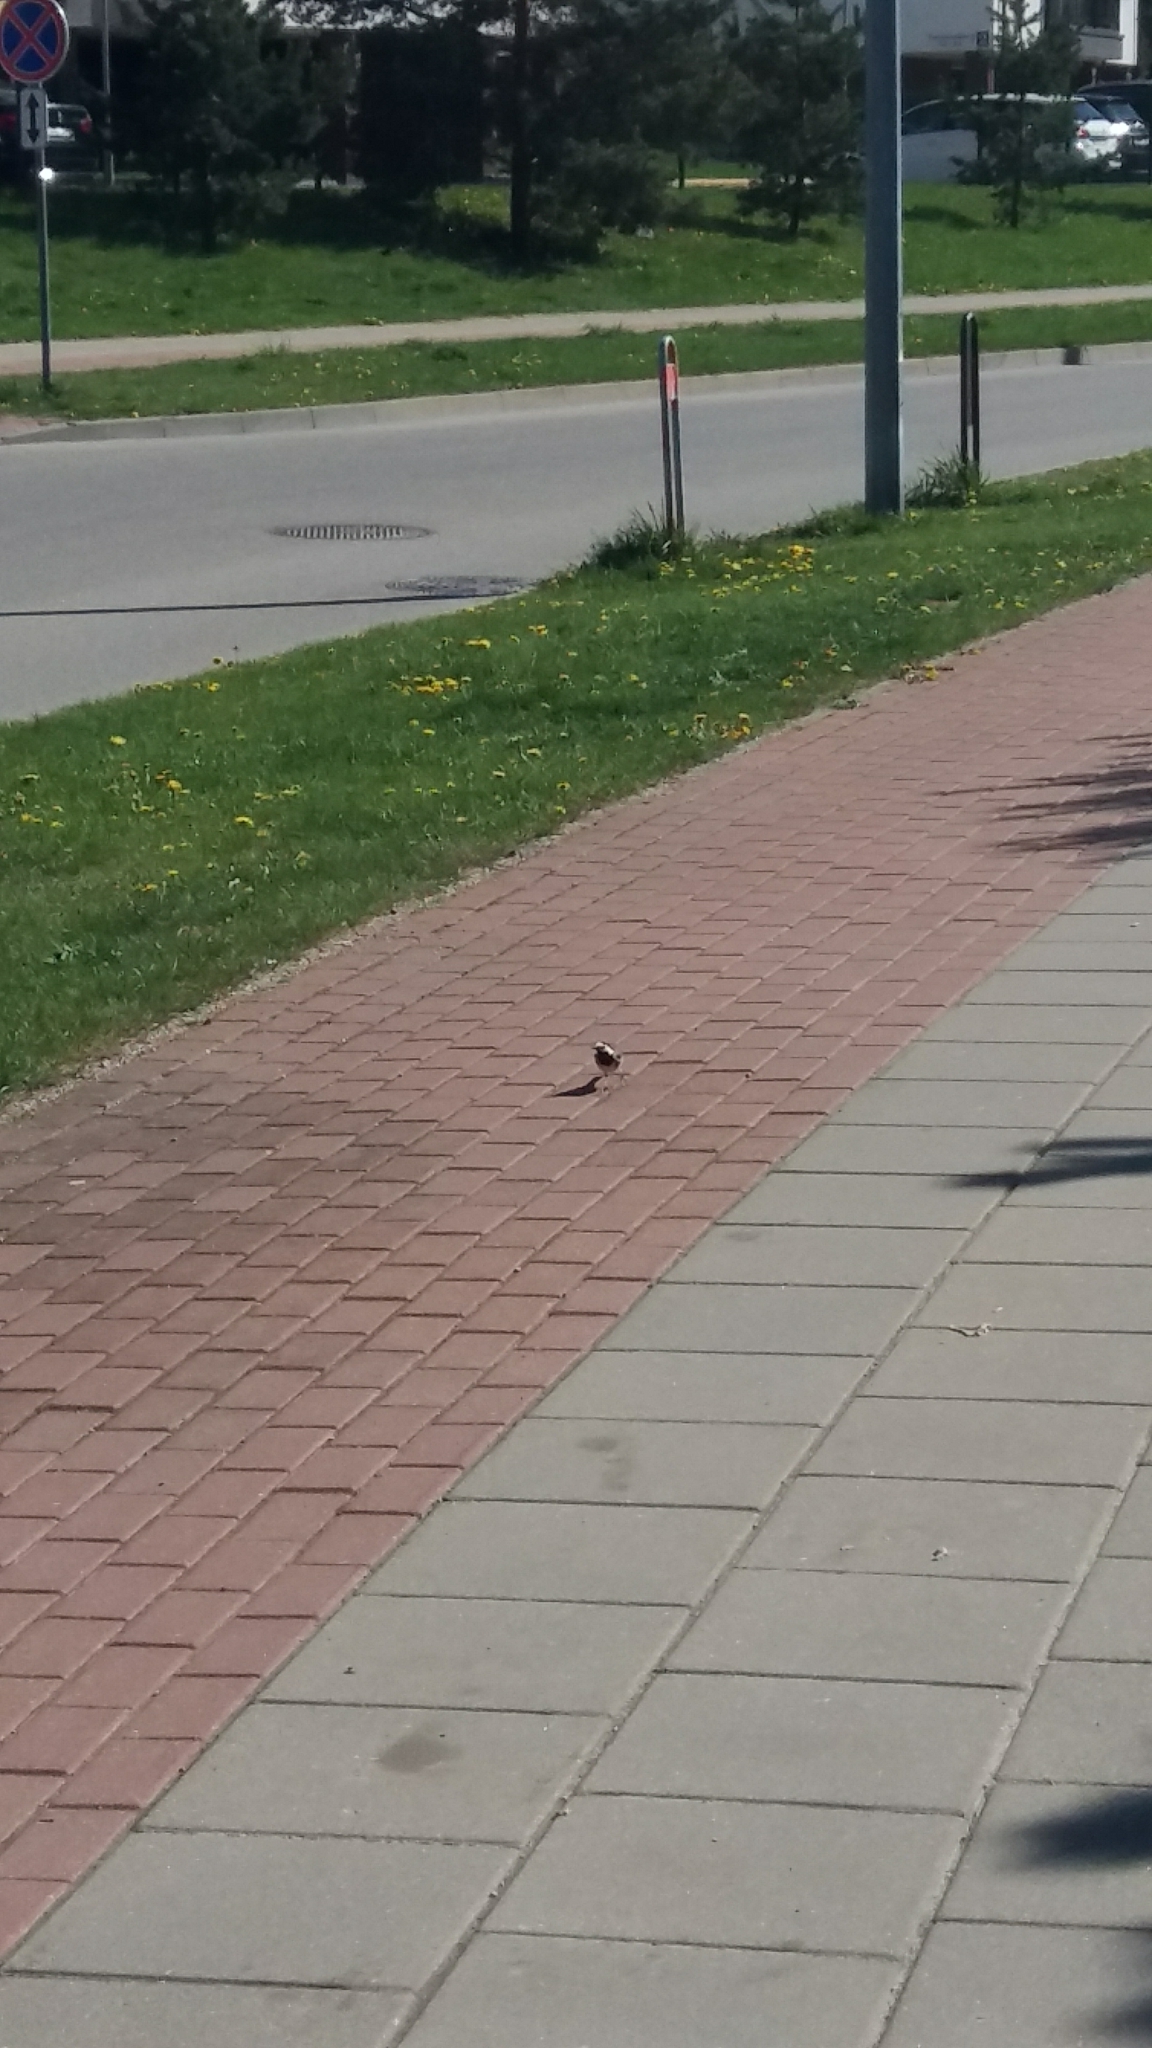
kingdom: Animalia
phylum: Chordata
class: Aves
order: Passeriformes
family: Motacillidae
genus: Motacilla
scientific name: Motacilla alba
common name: White wagtail
